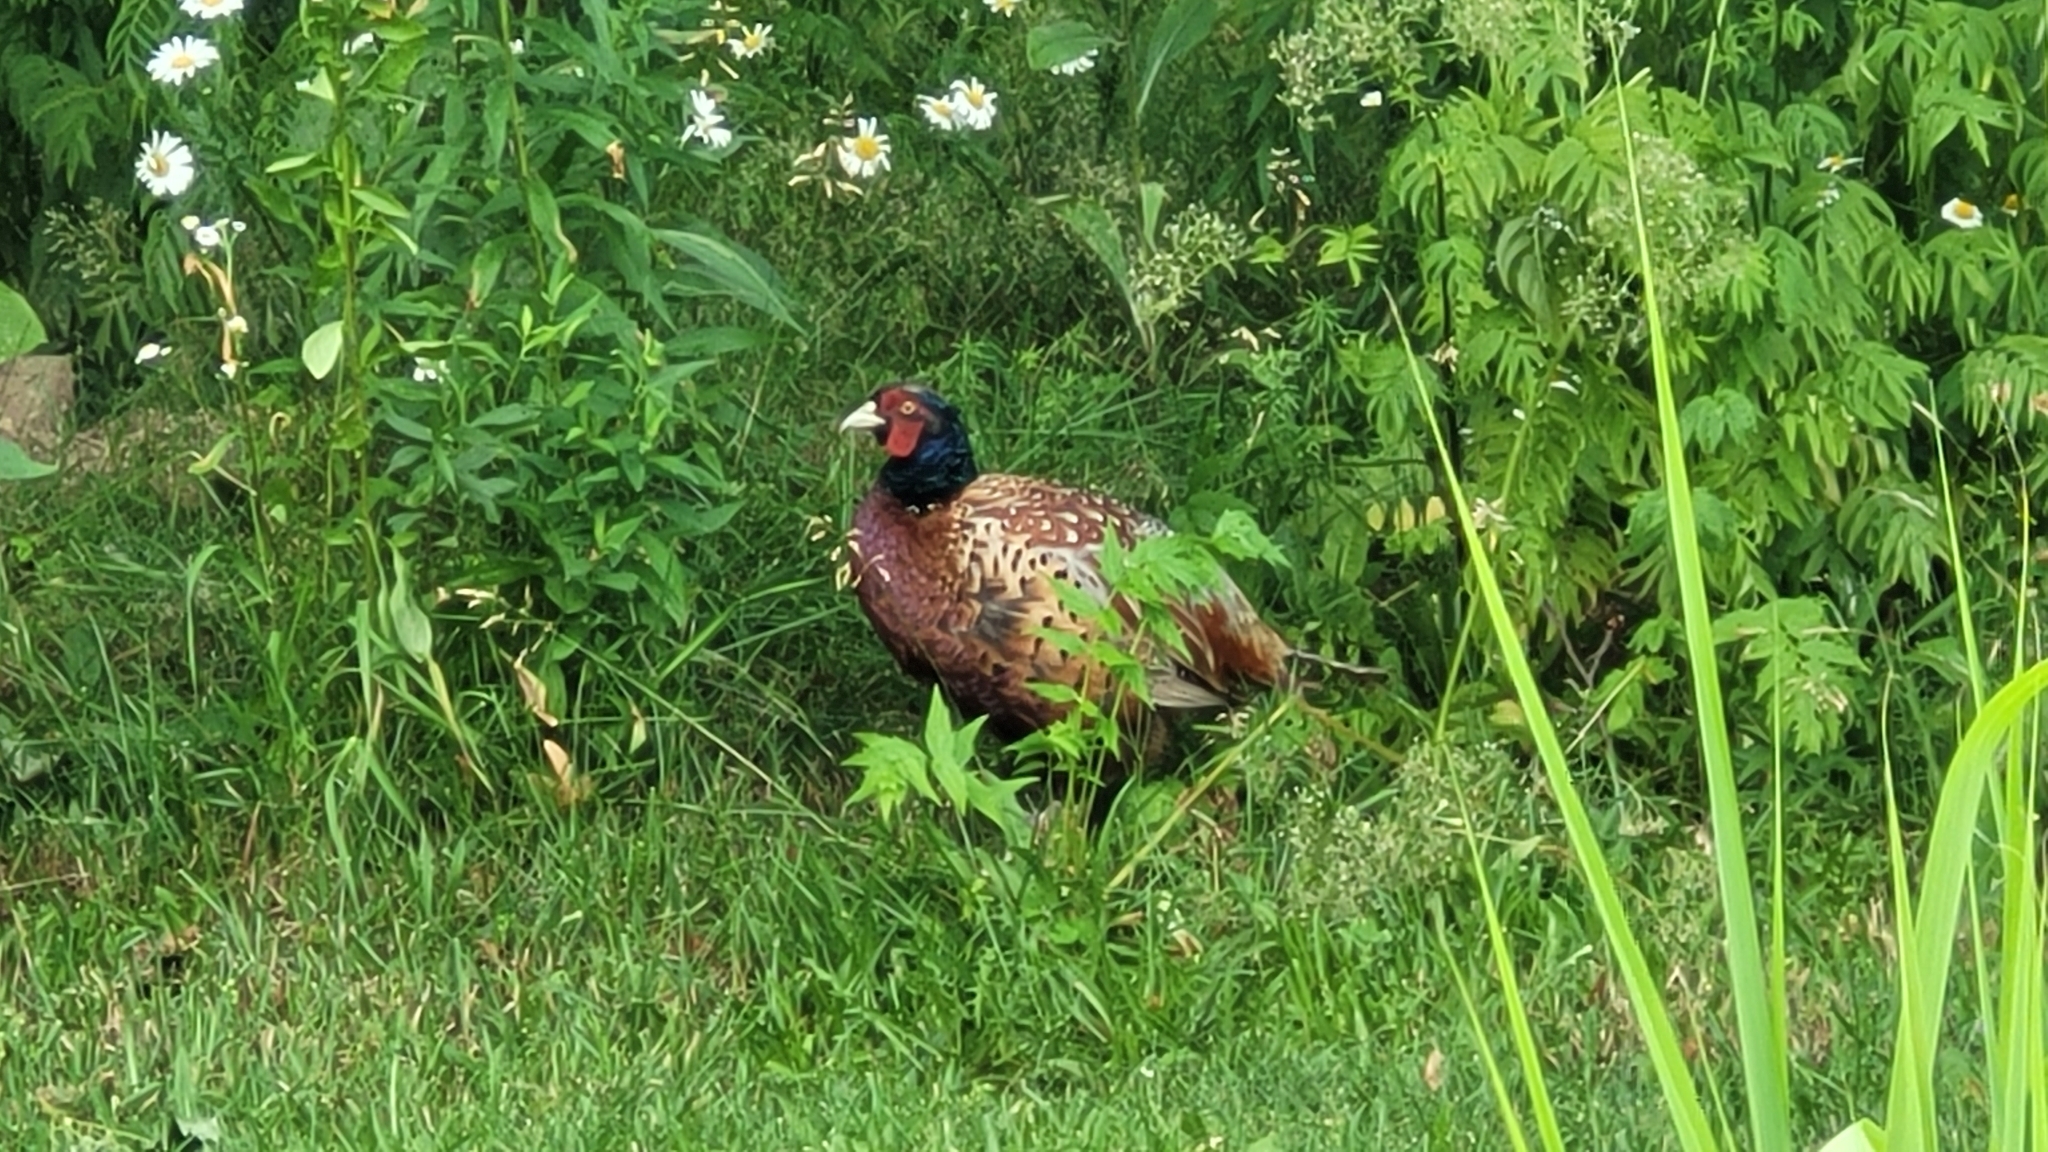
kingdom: Animalia
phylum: Chordata
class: Aves
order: Galliformes
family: Phasianidae
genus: Phasianus
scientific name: Phasianus colchicus
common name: Common pheasant
